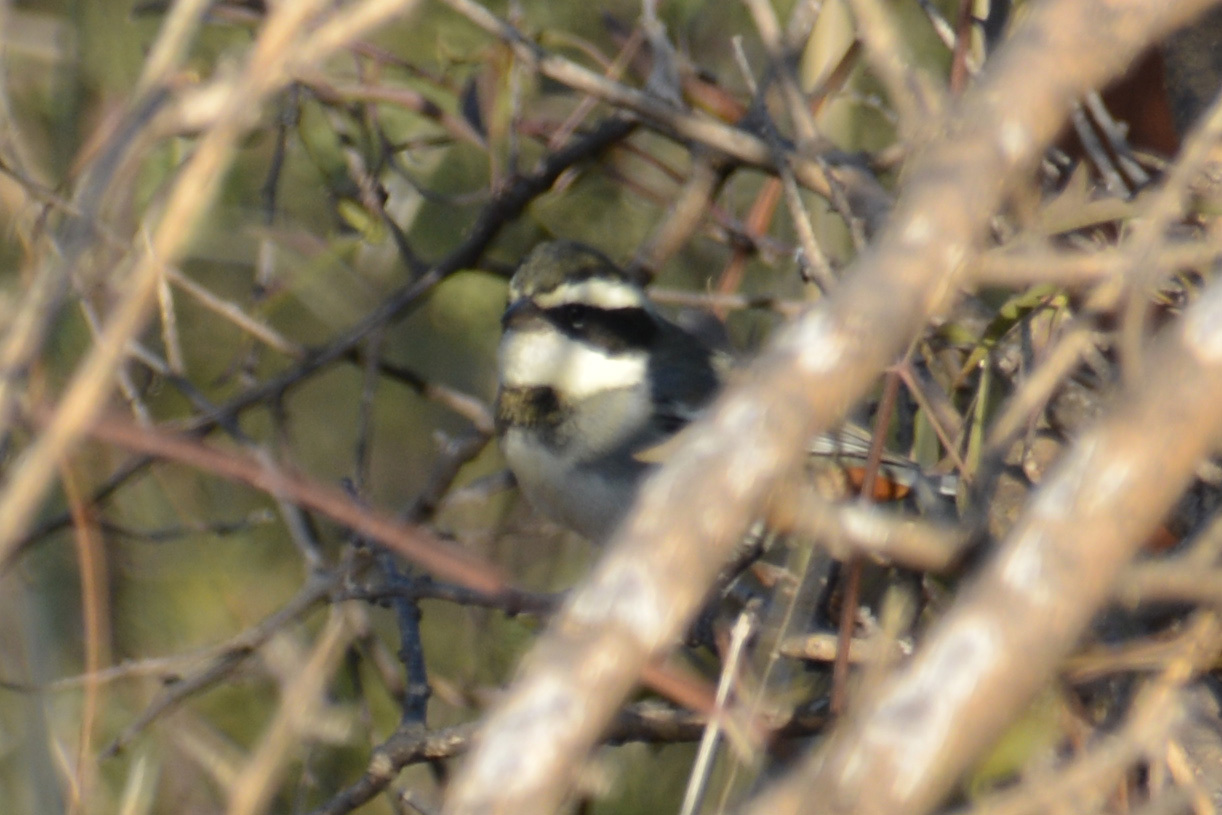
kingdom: Animalia
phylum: Chordata
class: Aves
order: Passeriformes
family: Thraupidae
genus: Microspingus
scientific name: Microspingus torquatus
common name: Ringed warbling-finch
